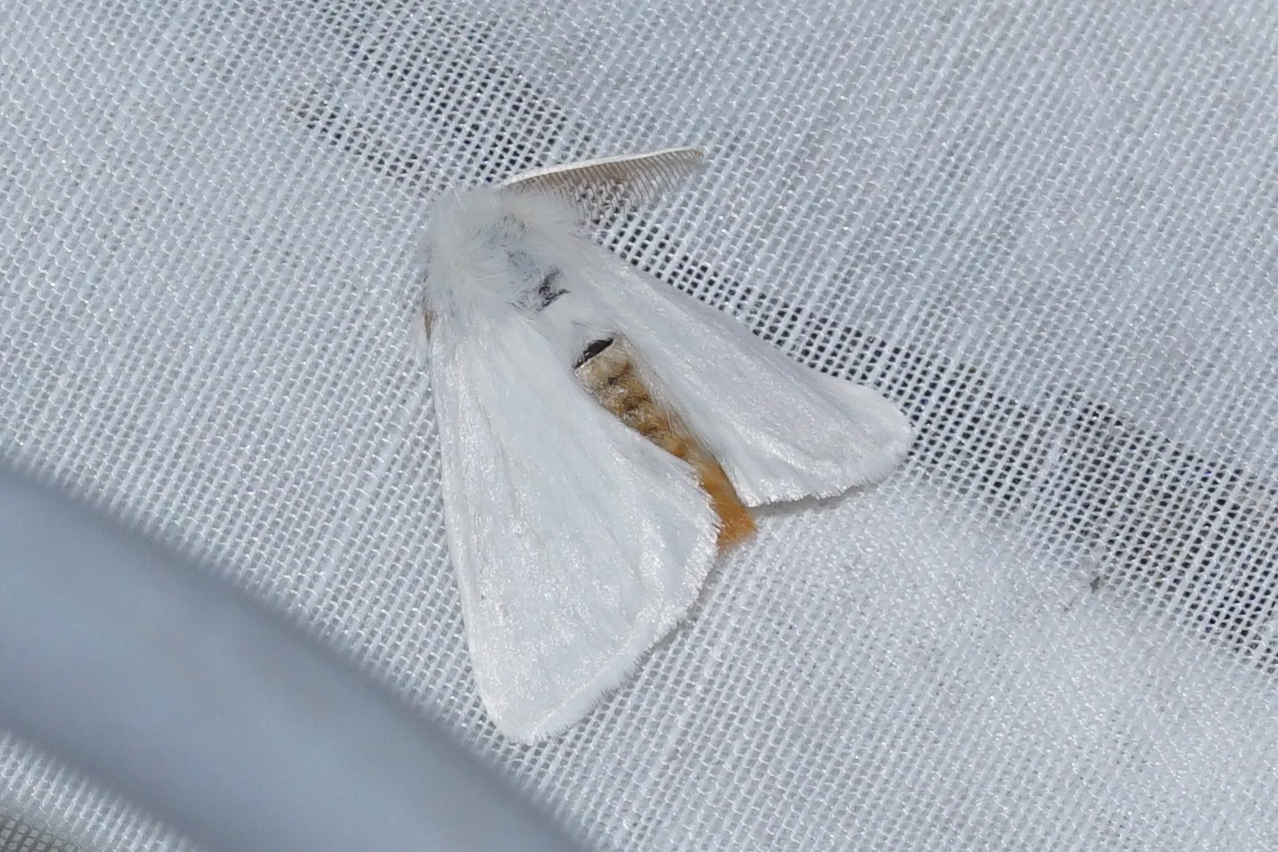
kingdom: Animalia
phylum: Arthropoda
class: Insecta
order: Lepidoptera
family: Erebidae
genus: Sphrageidus
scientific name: Sphrageidus similis
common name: Yellow-tail
